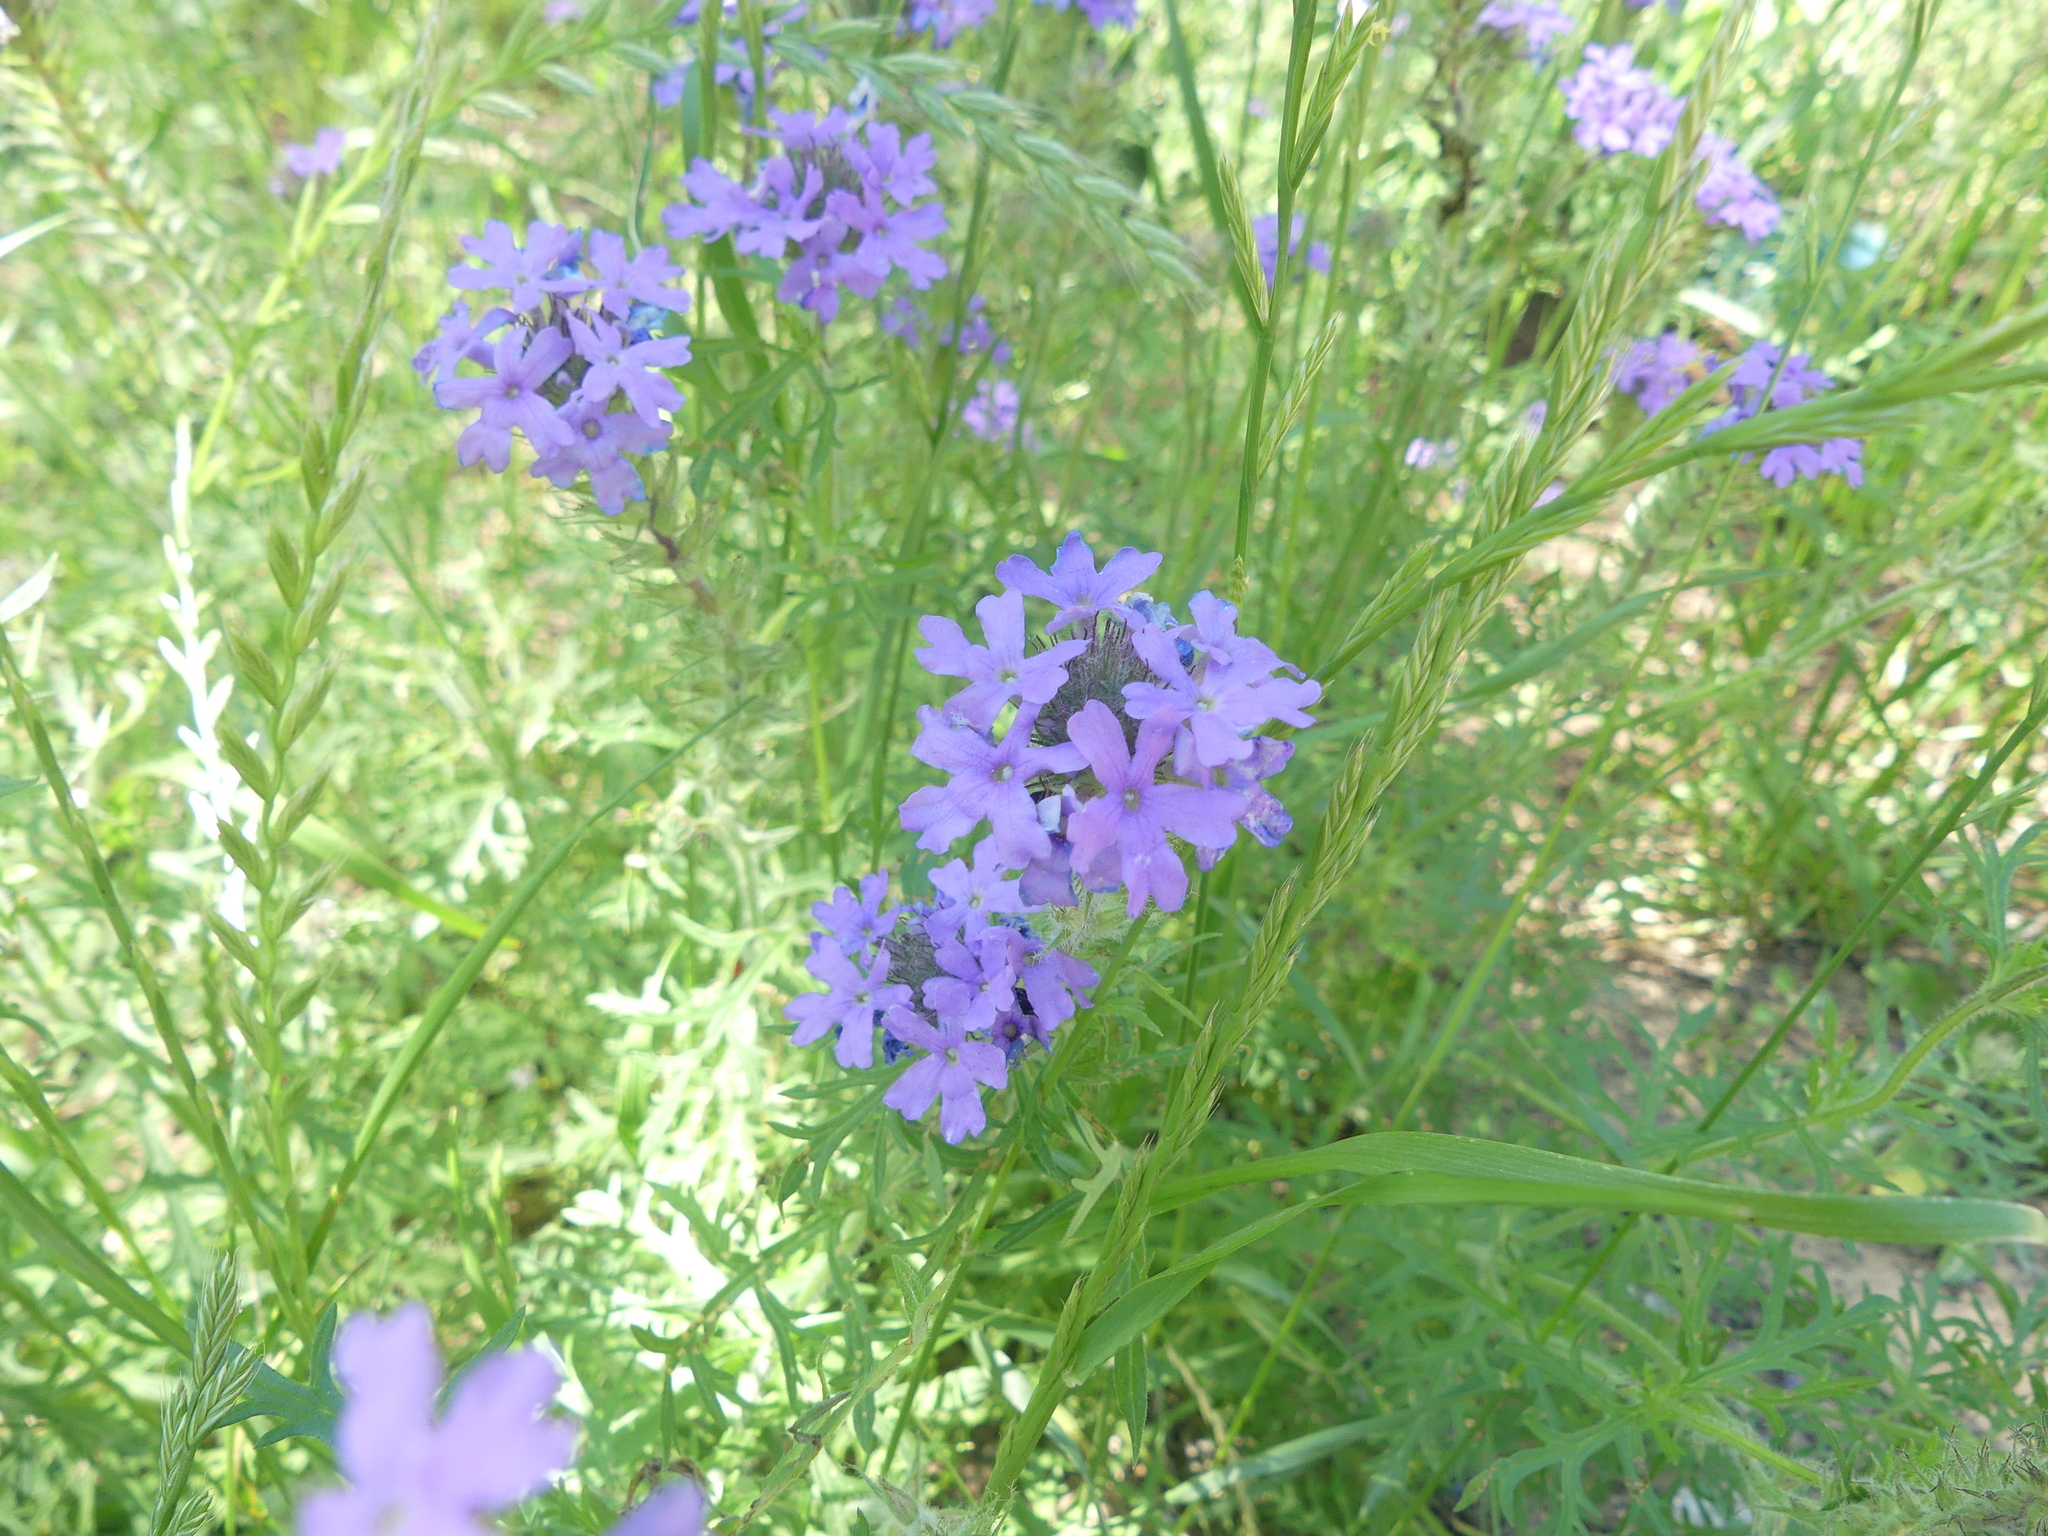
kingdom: Plantae
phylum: Tracheophyta
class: Magnoliopsida
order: Lamiales
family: Verbenaceae
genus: Verbena
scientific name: Verbena bipinnatifida
